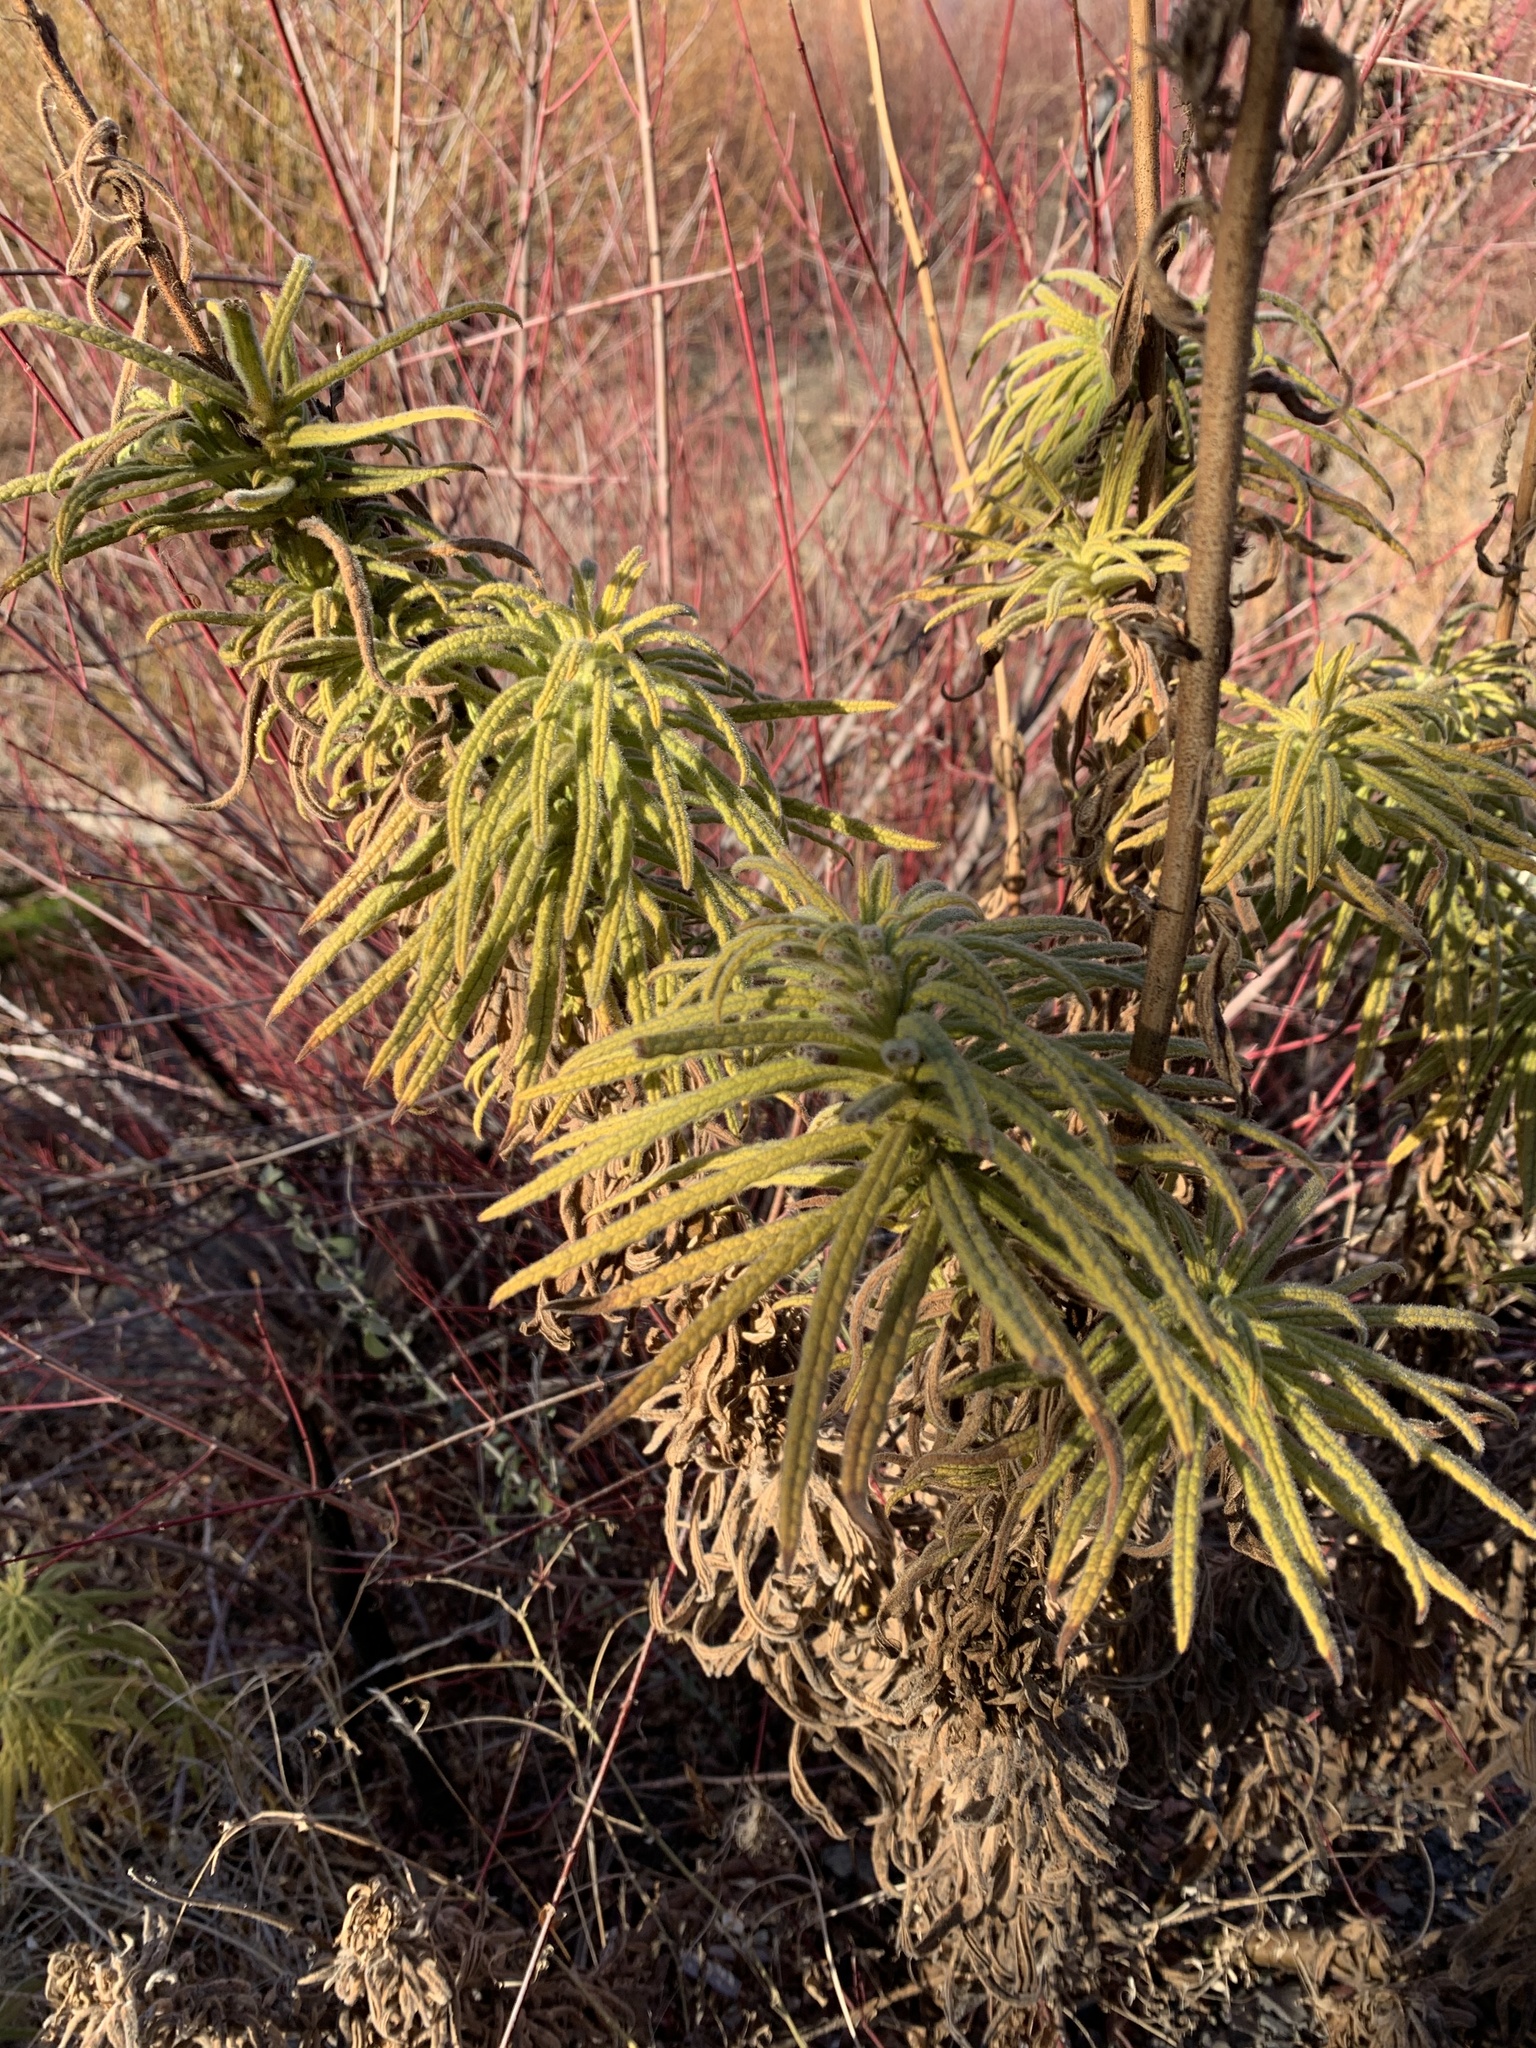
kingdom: Plantae
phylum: Tracheophyta
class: Magnoliopsida
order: Boraginales
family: Namaceae
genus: Turricula
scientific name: Turricula parryi
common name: Poodle-dog-bush
